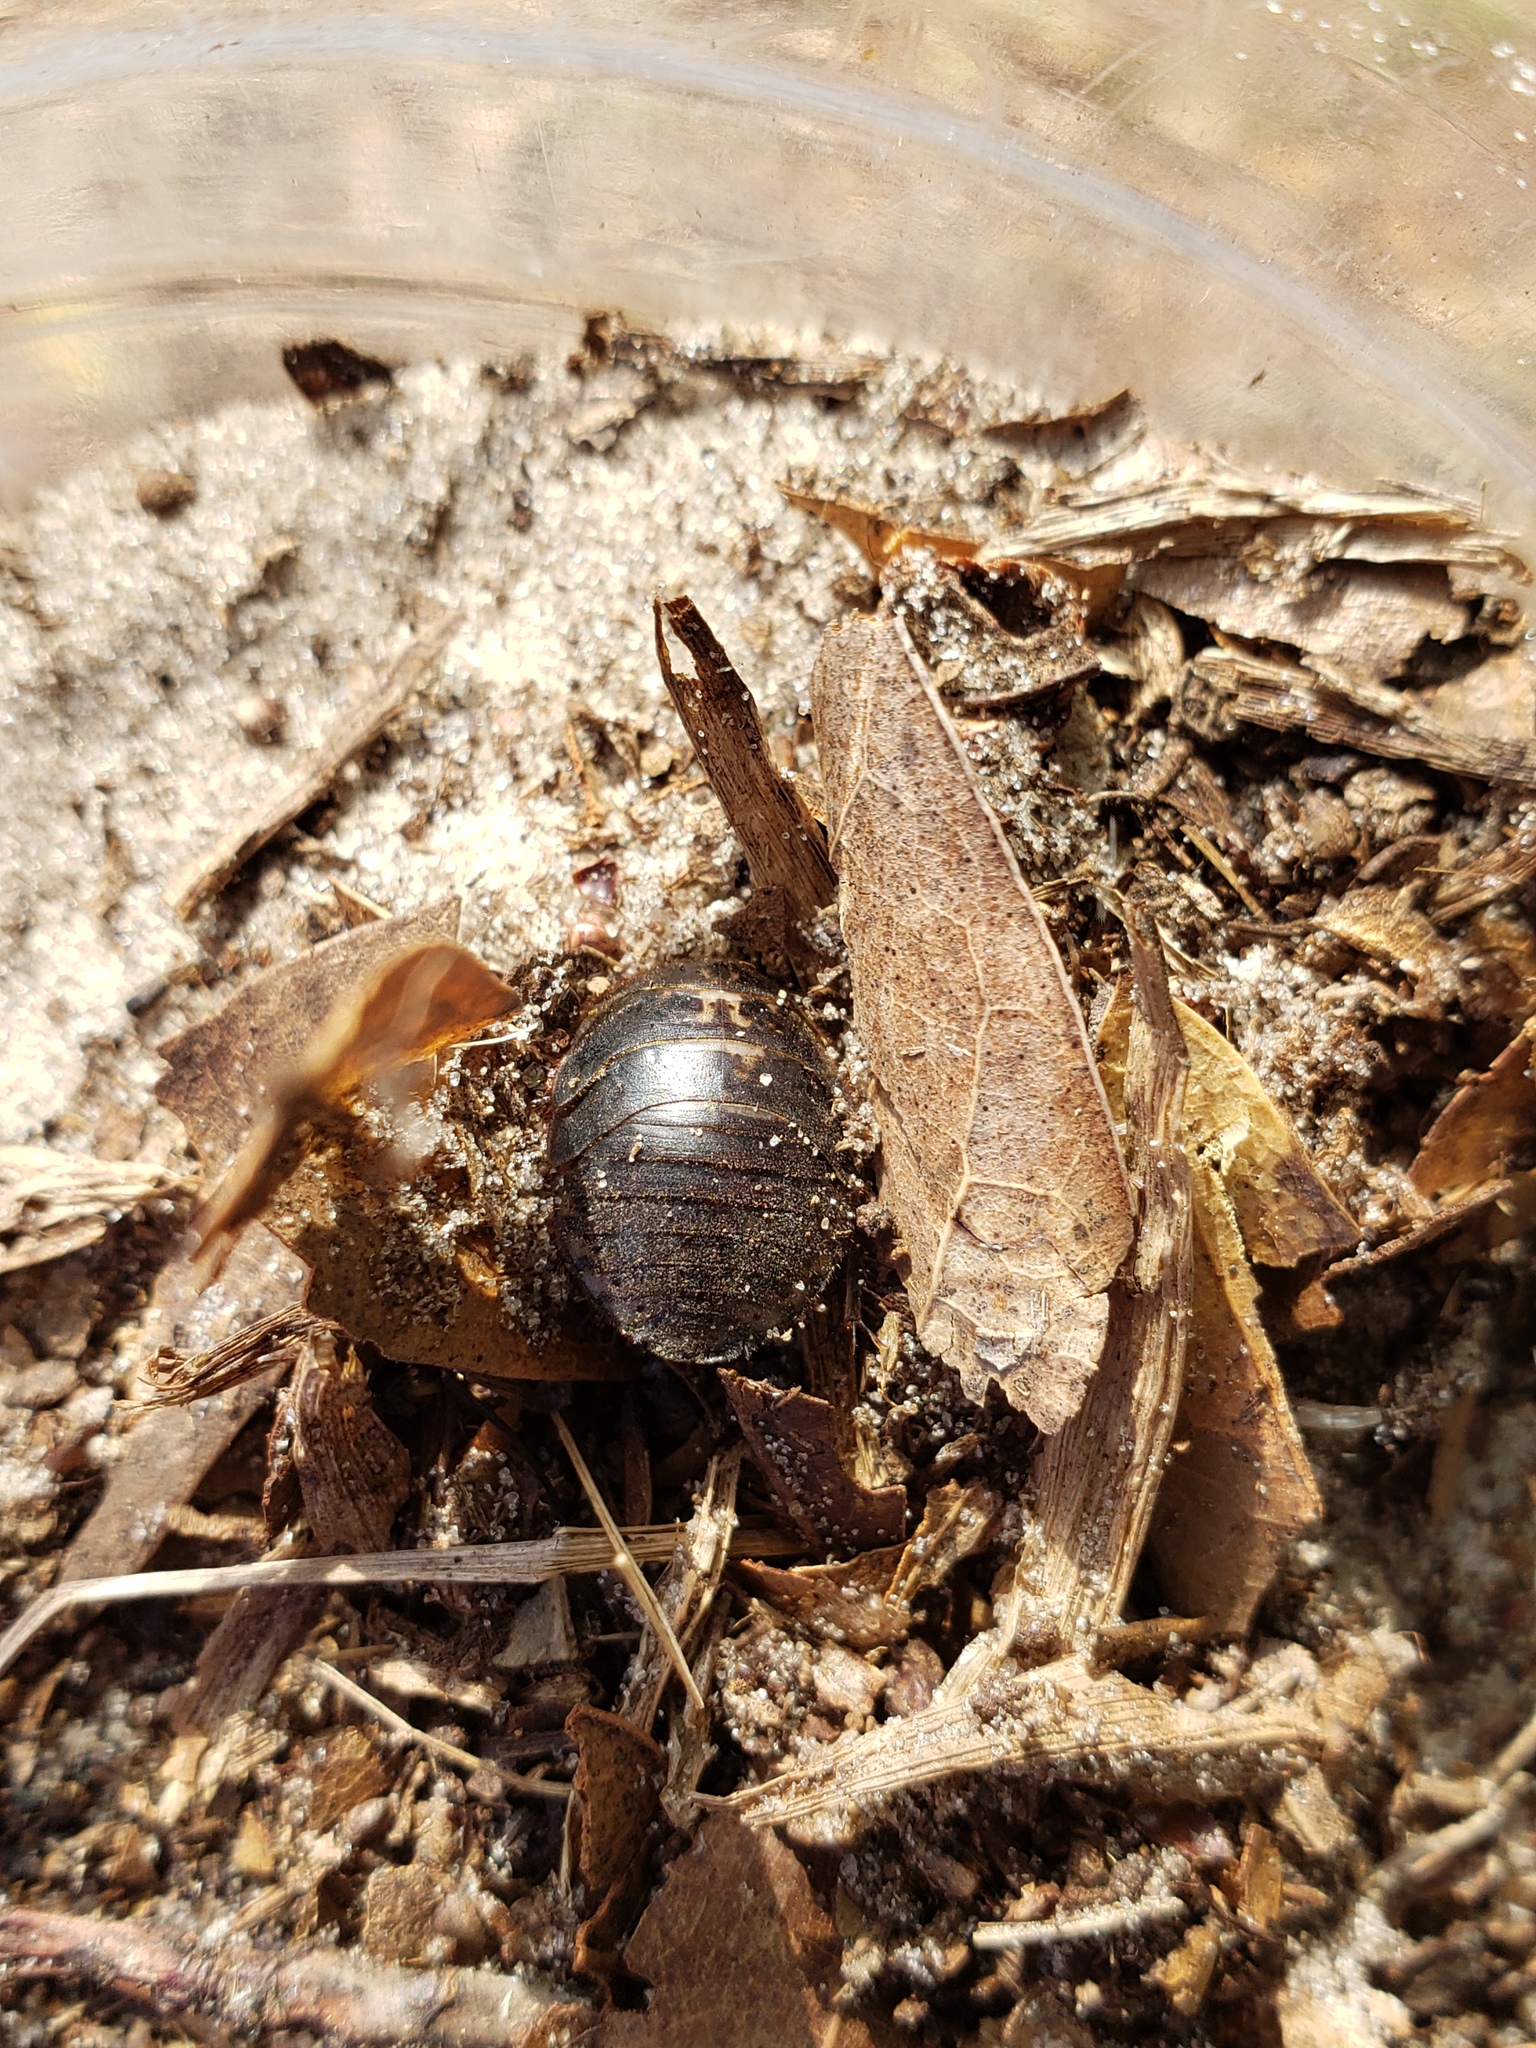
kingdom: Animalia
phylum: Arthropoda
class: Insecta
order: Blattodea
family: Corydiidae
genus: Arenivaga
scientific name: Arenivaga floridensis
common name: Florida sand cockroach
